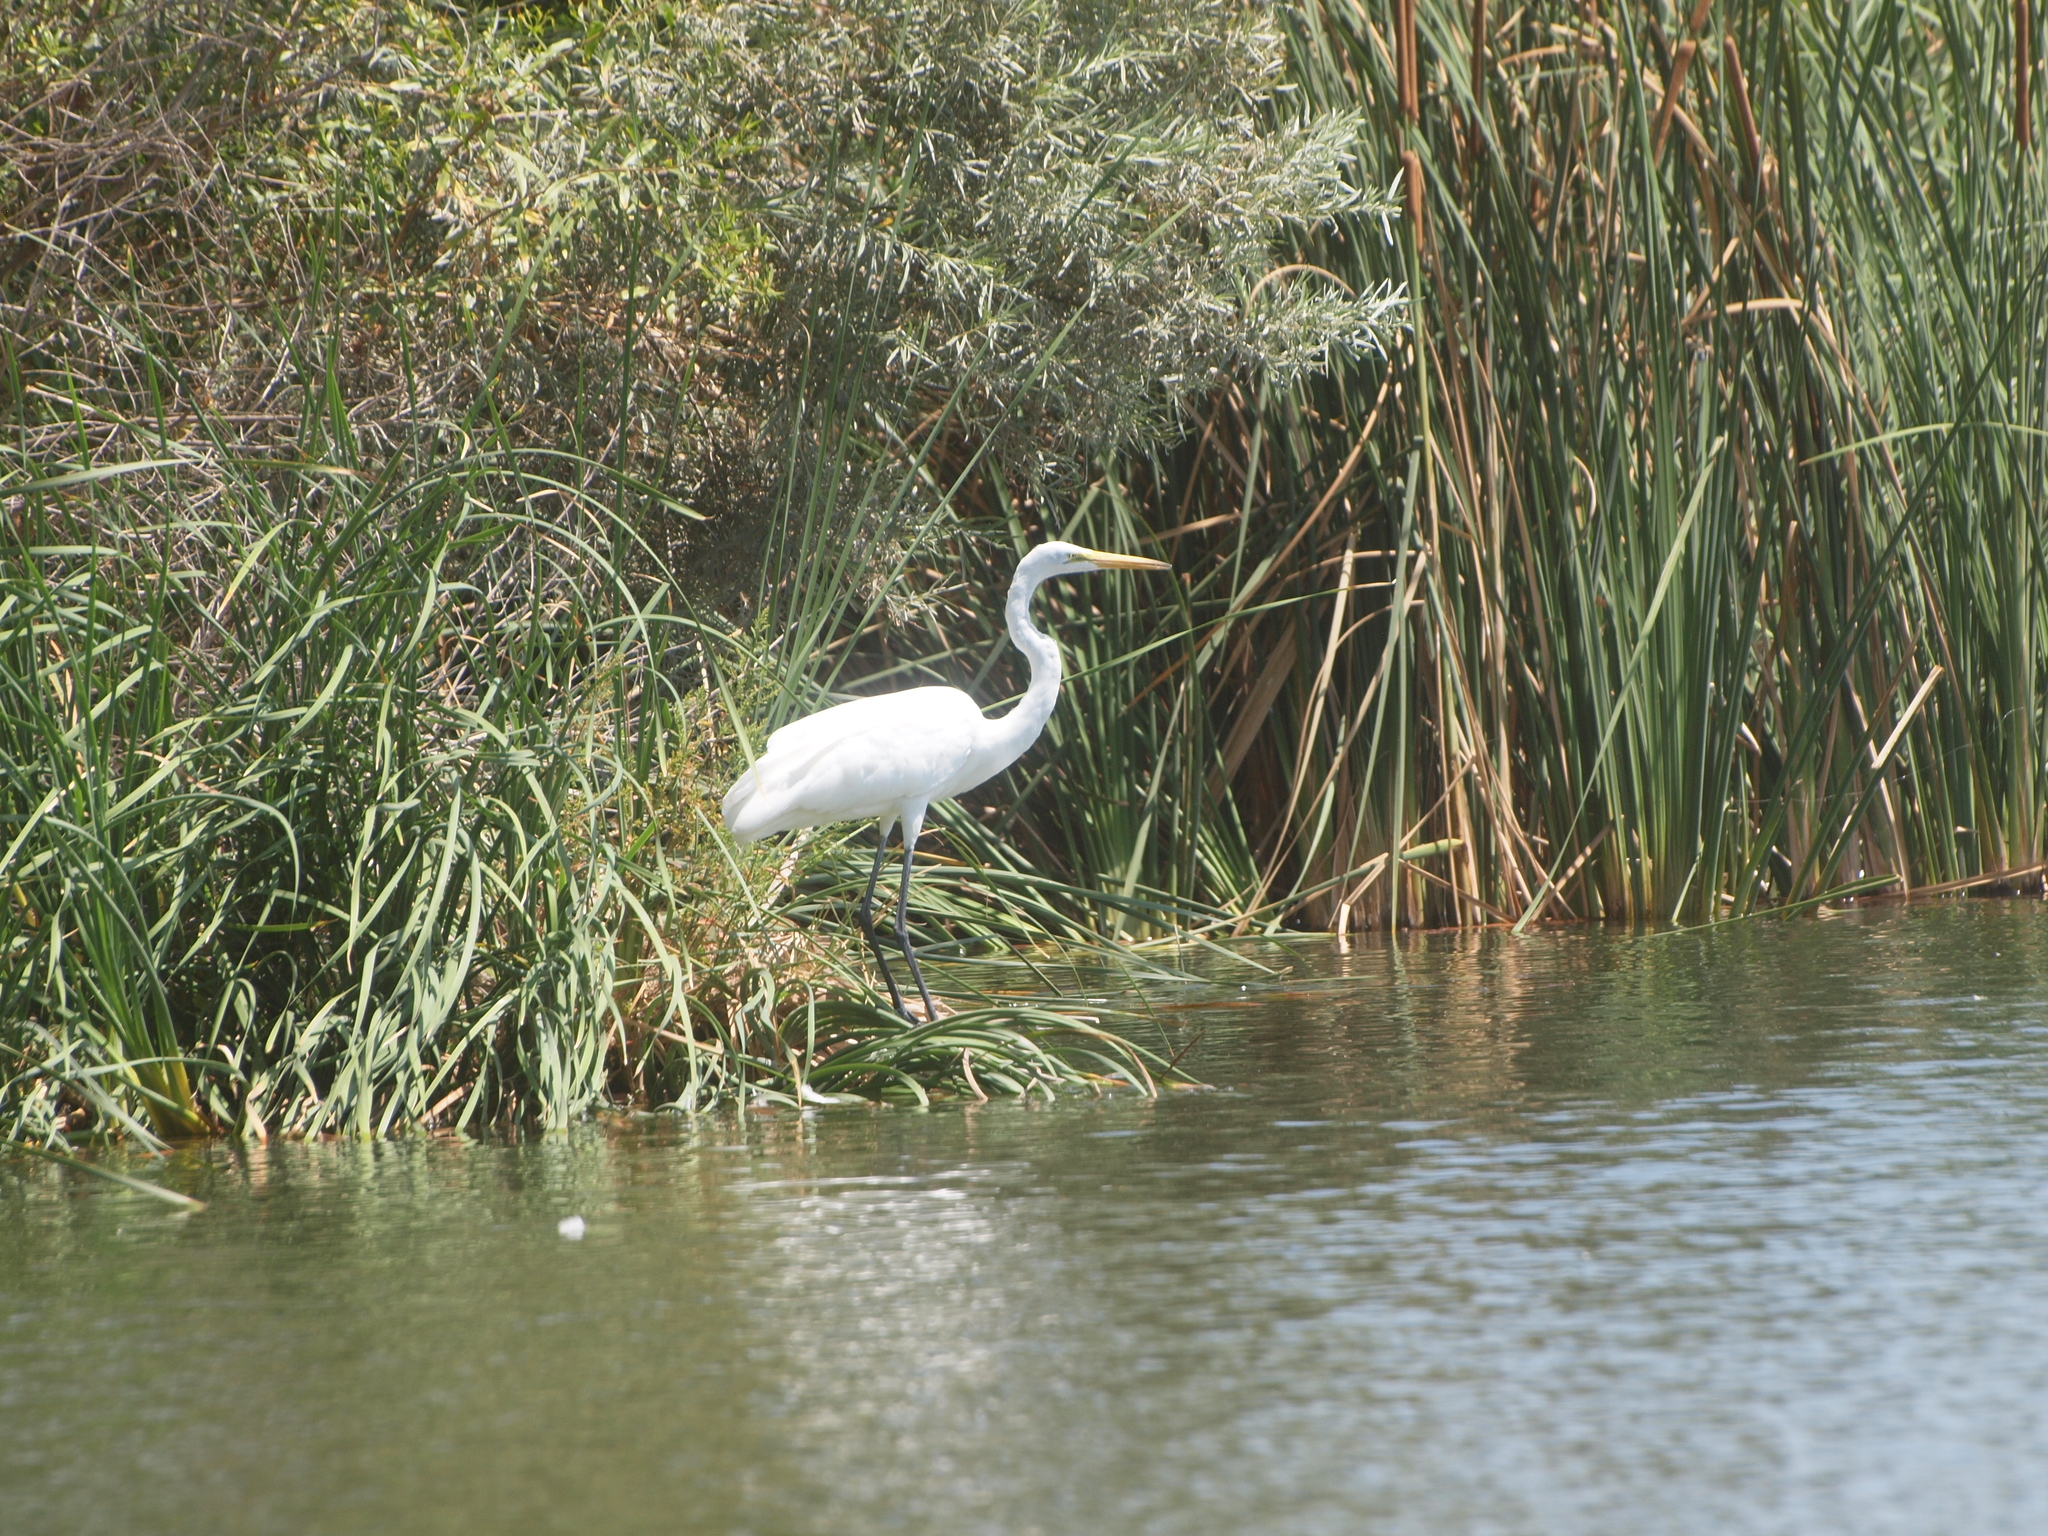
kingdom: Animalia
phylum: Chordata
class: Aves
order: Pelecaniformes
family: Ardeidae
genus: Ardea
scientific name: Ardea alba
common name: Great egret
